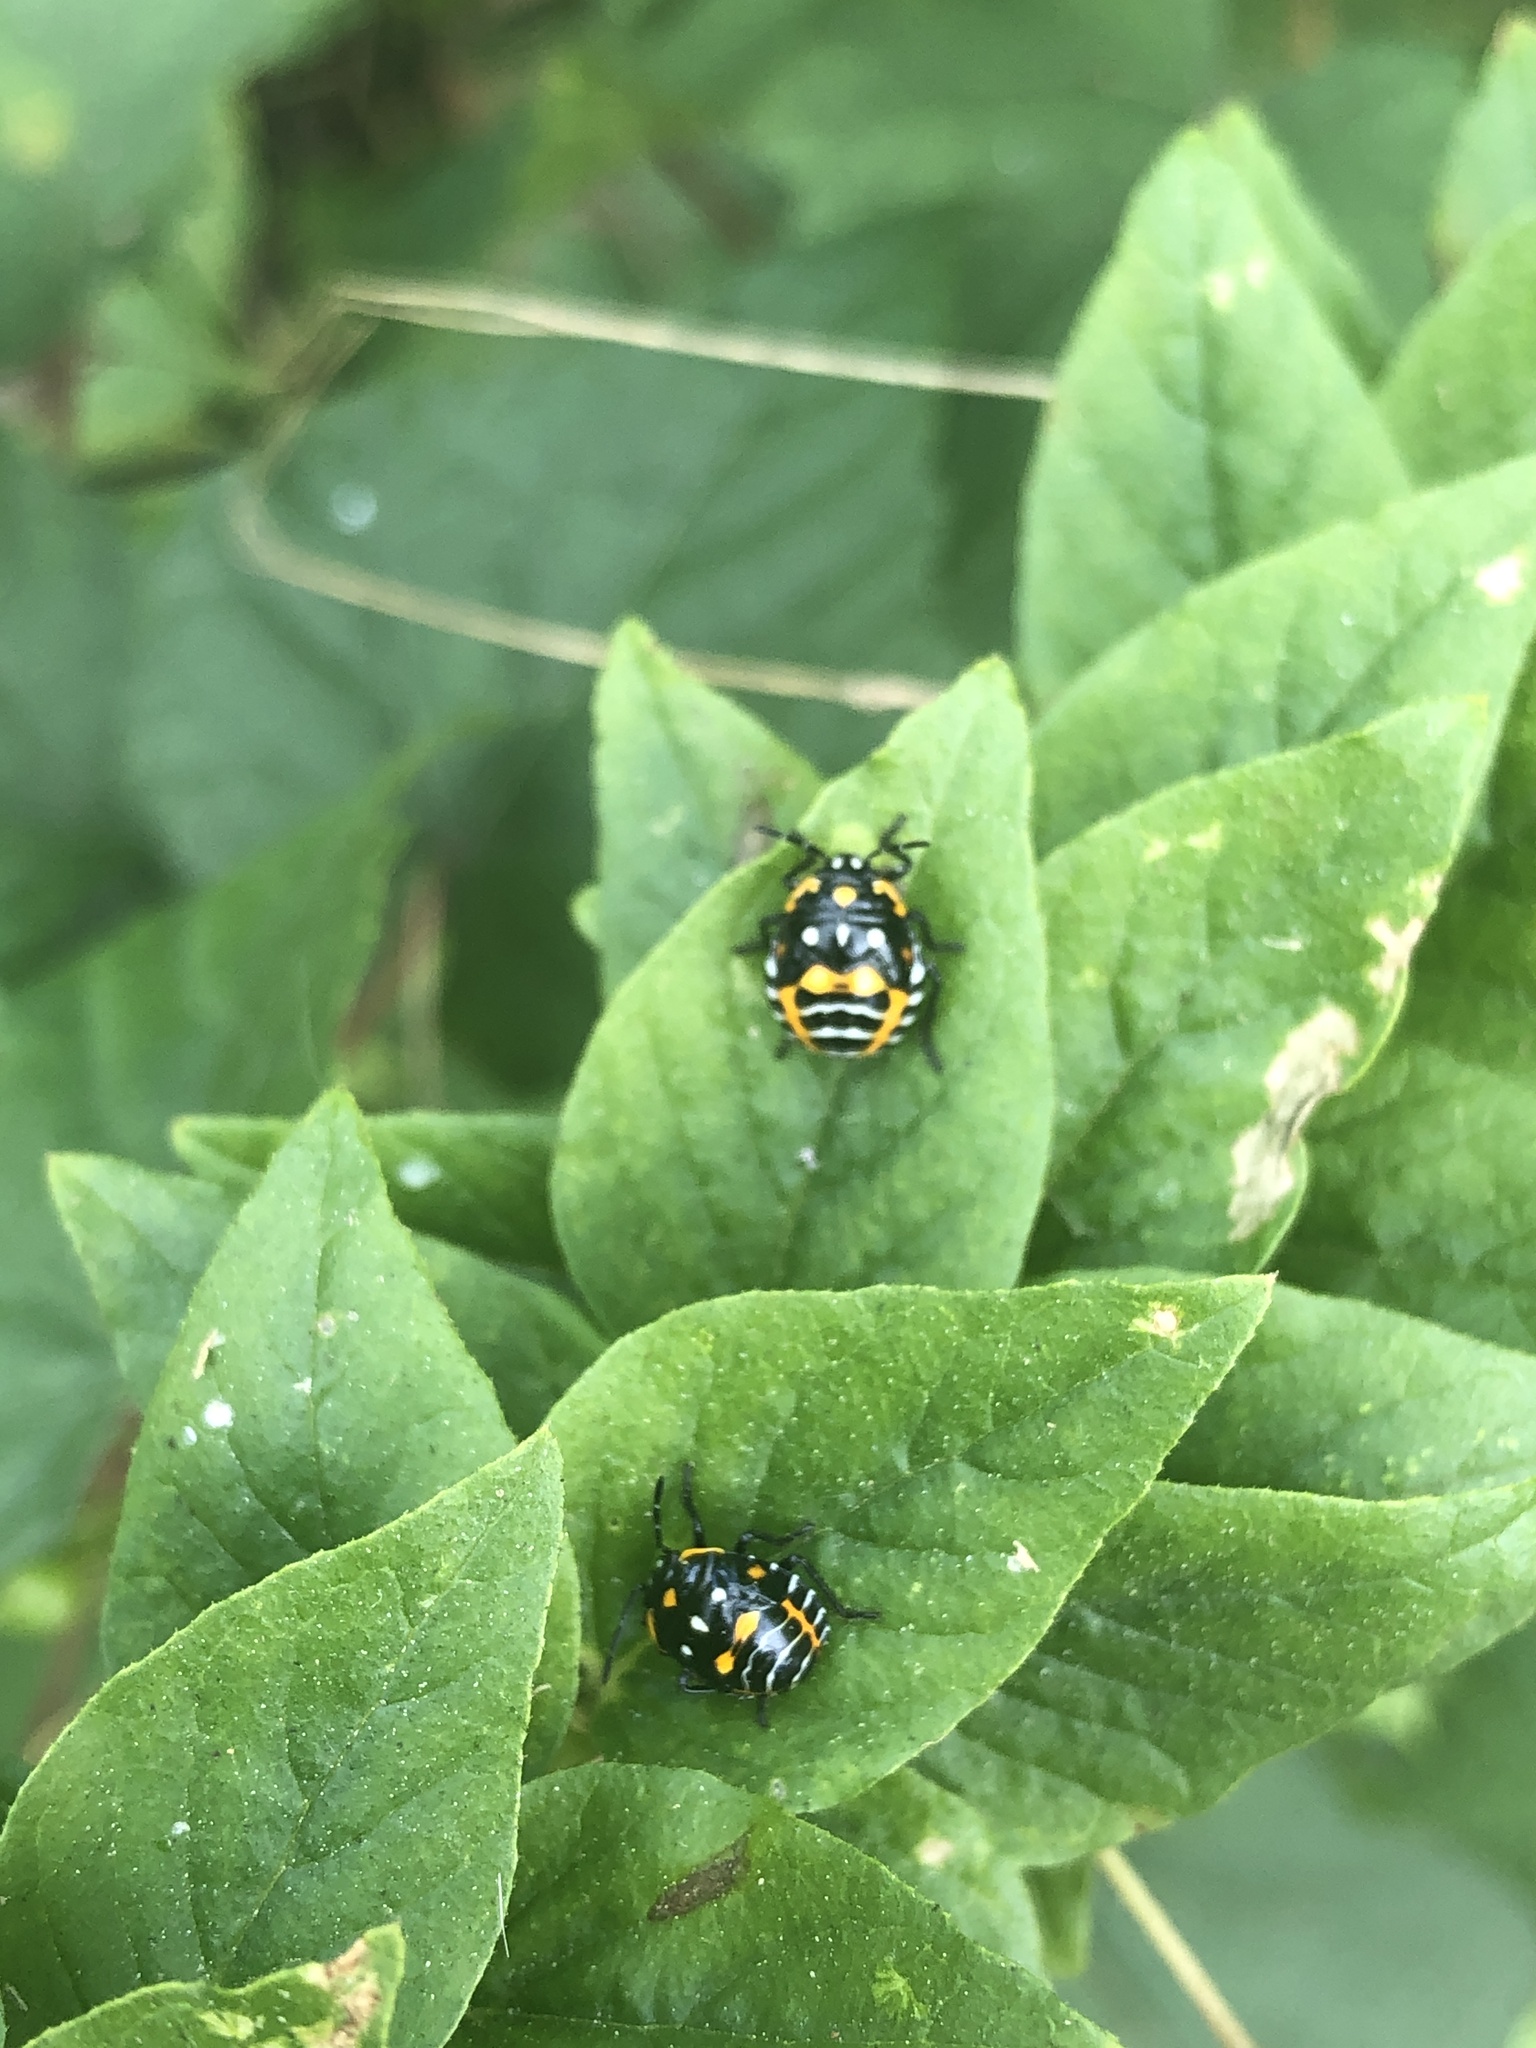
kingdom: Animalia
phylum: Arthropoda
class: Insecta
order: Hemiptera
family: Pentatomidae
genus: Murgantia
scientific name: Murgantia histrionica
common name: Harlequin bug
